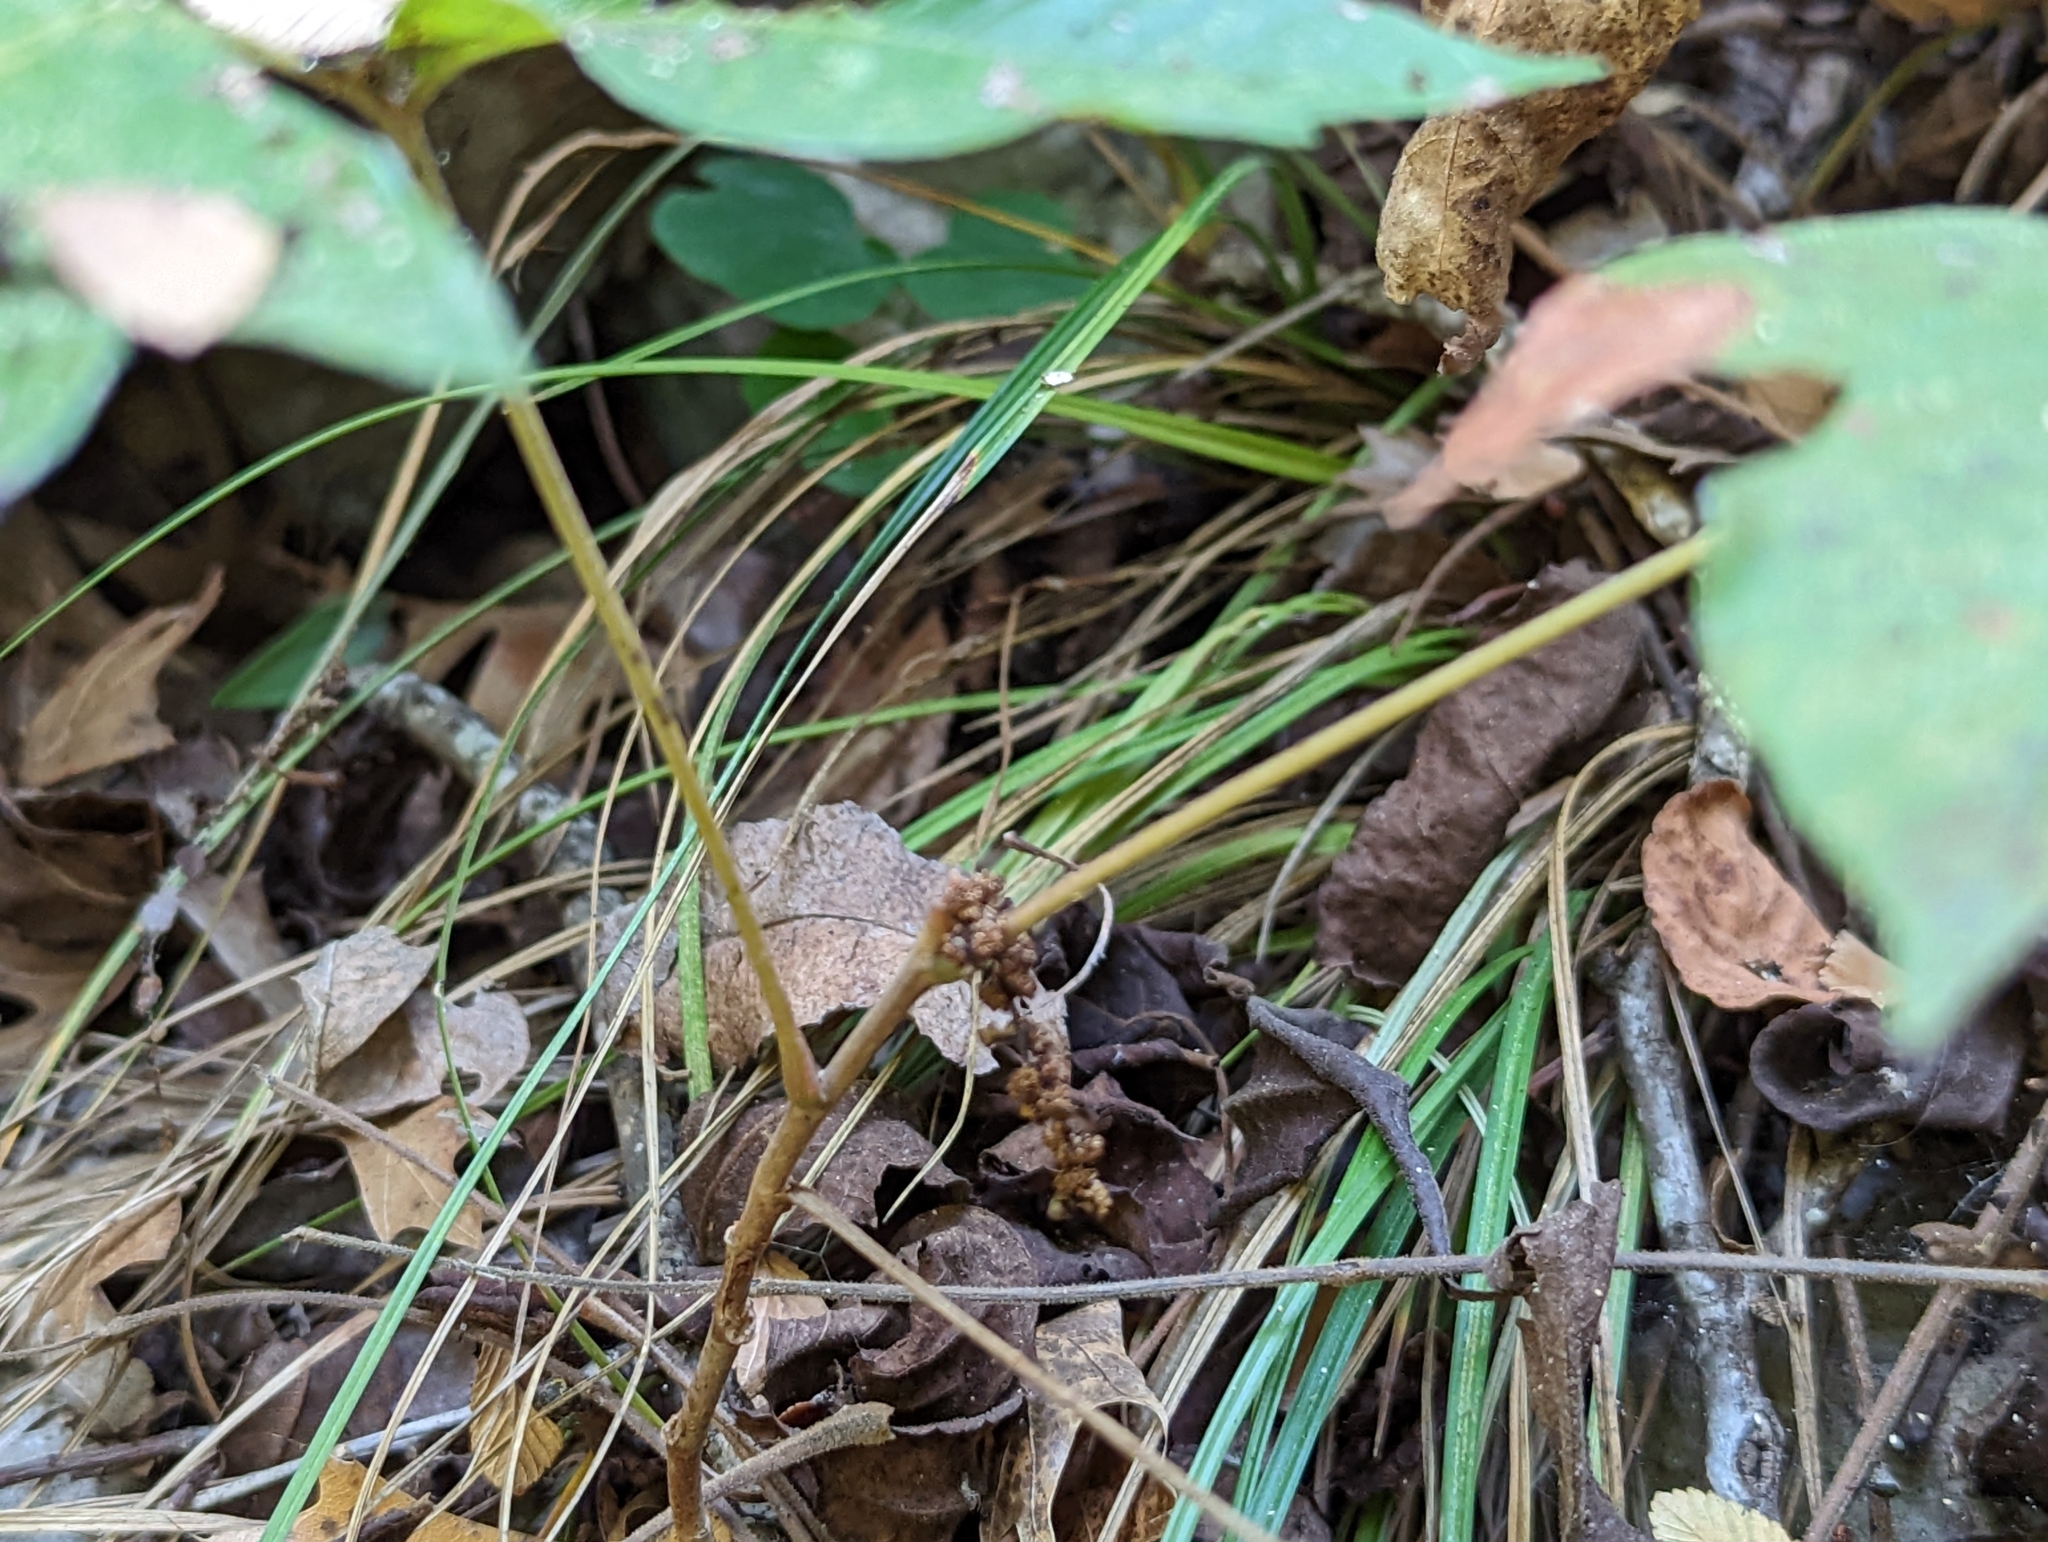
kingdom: Plantae
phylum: Tracheophyta
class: Magnoliopsida
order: Sapindales
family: Anacardiaceae
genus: Toxicodendron
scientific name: Toxicodendron radicans
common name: Poison ivy
